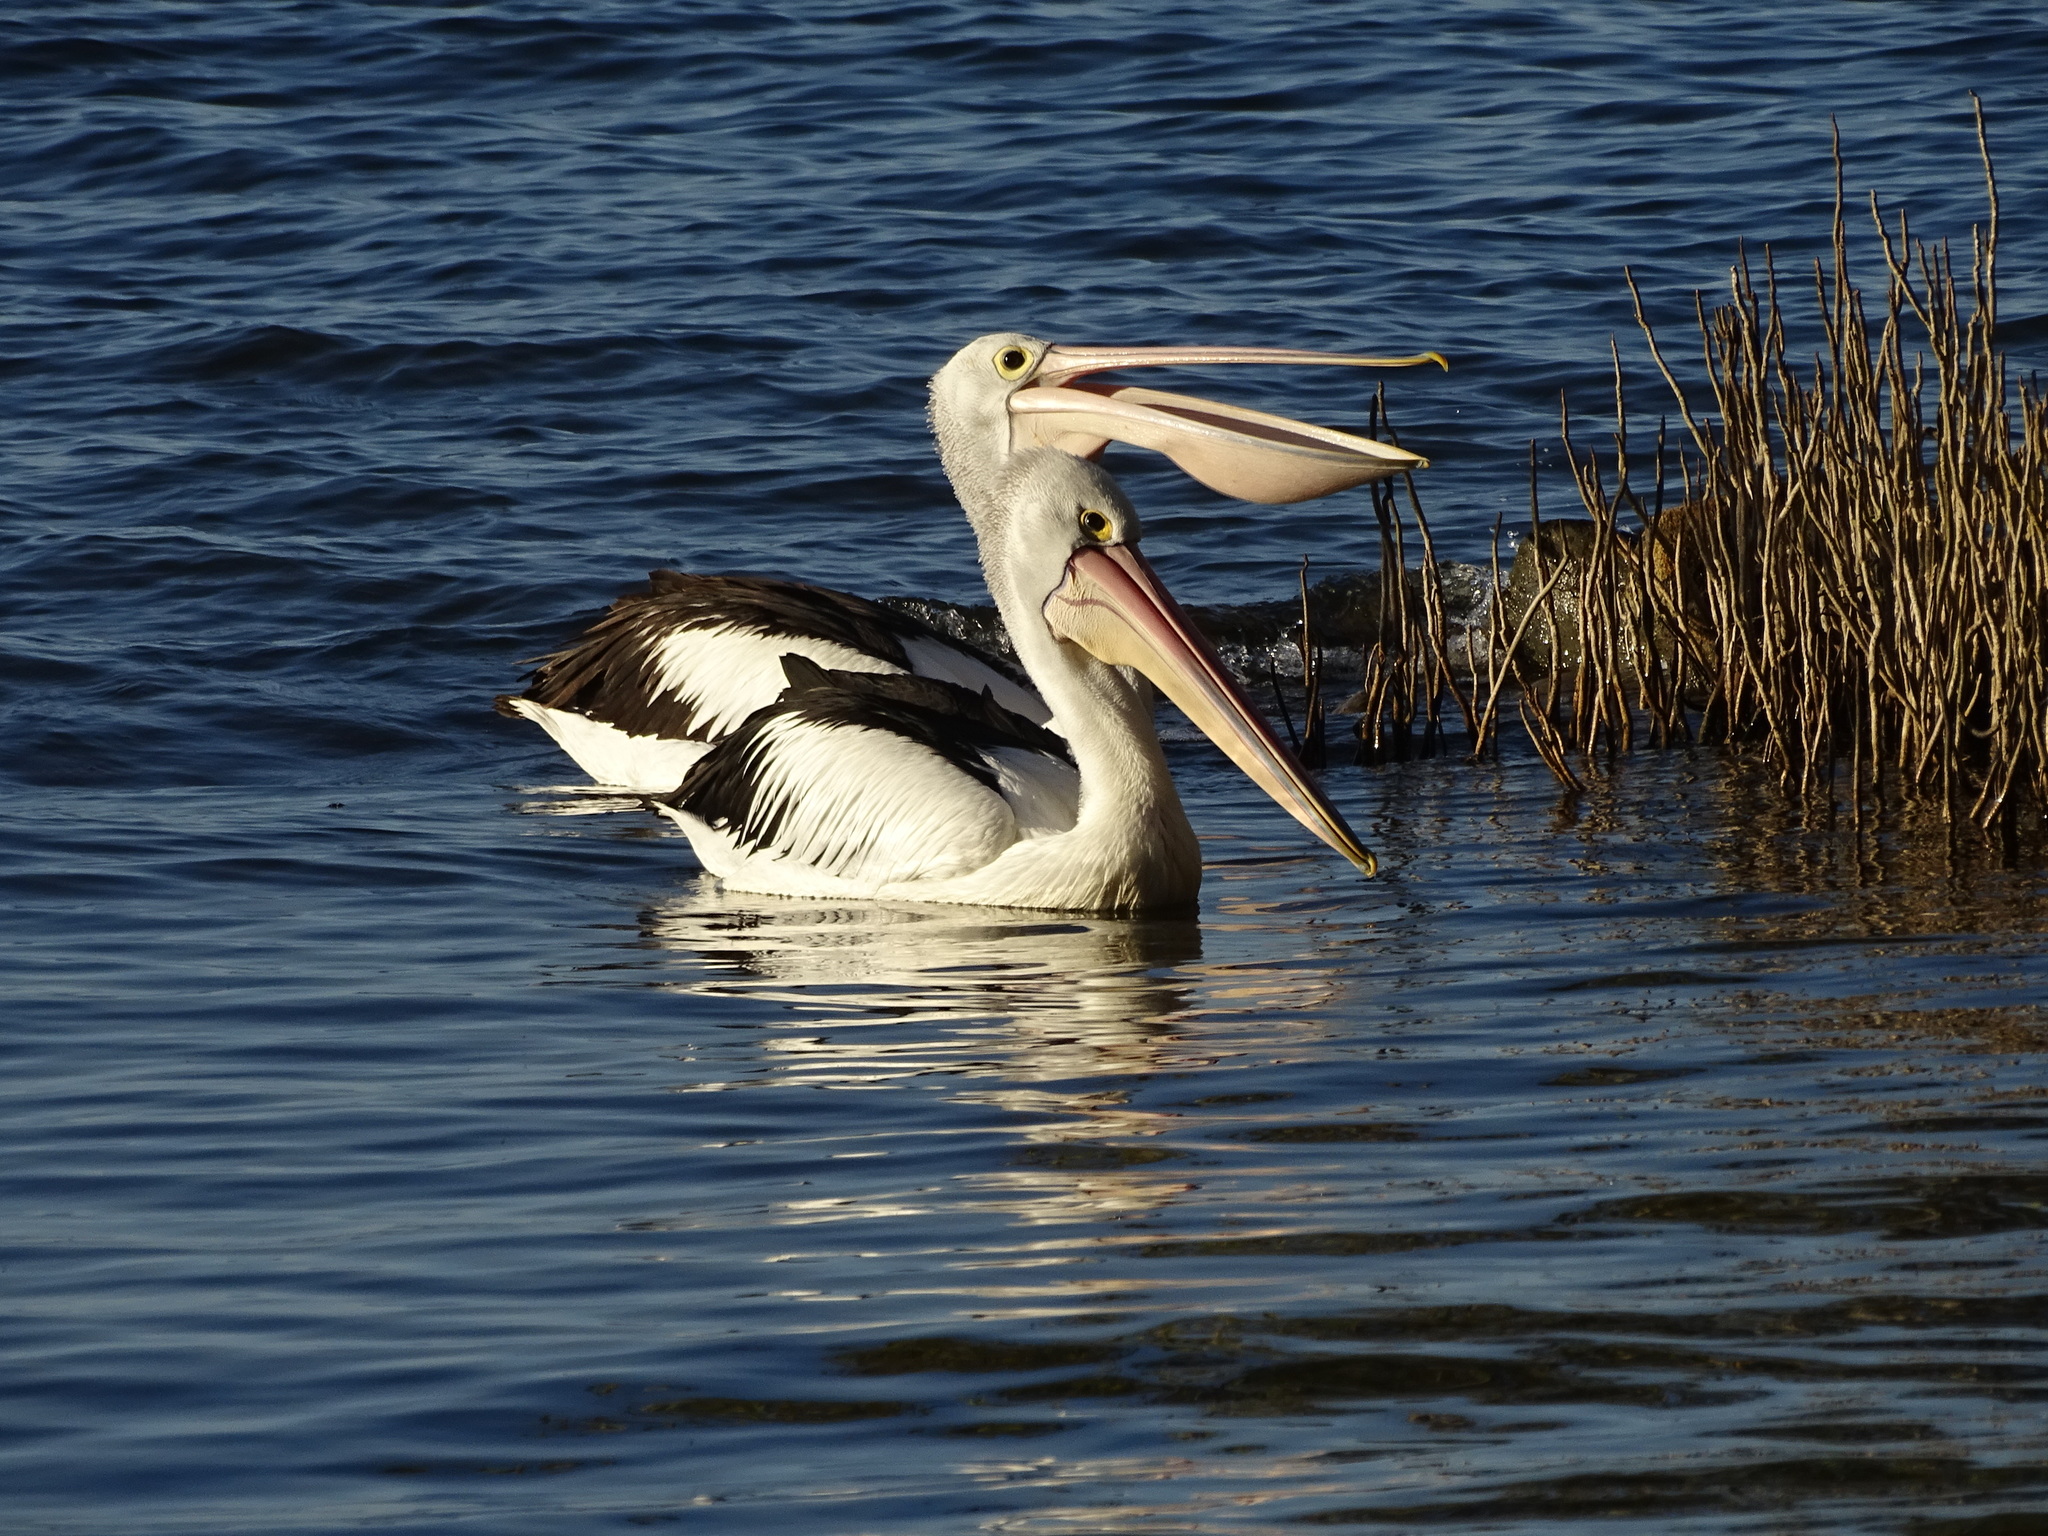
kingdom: Animalia
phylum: Chordata
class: Aves
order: Pelecaniformes
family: Pelecanidae
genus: Pelecanus
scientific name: Pelecanus conspicillatus
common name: Australian pelican
